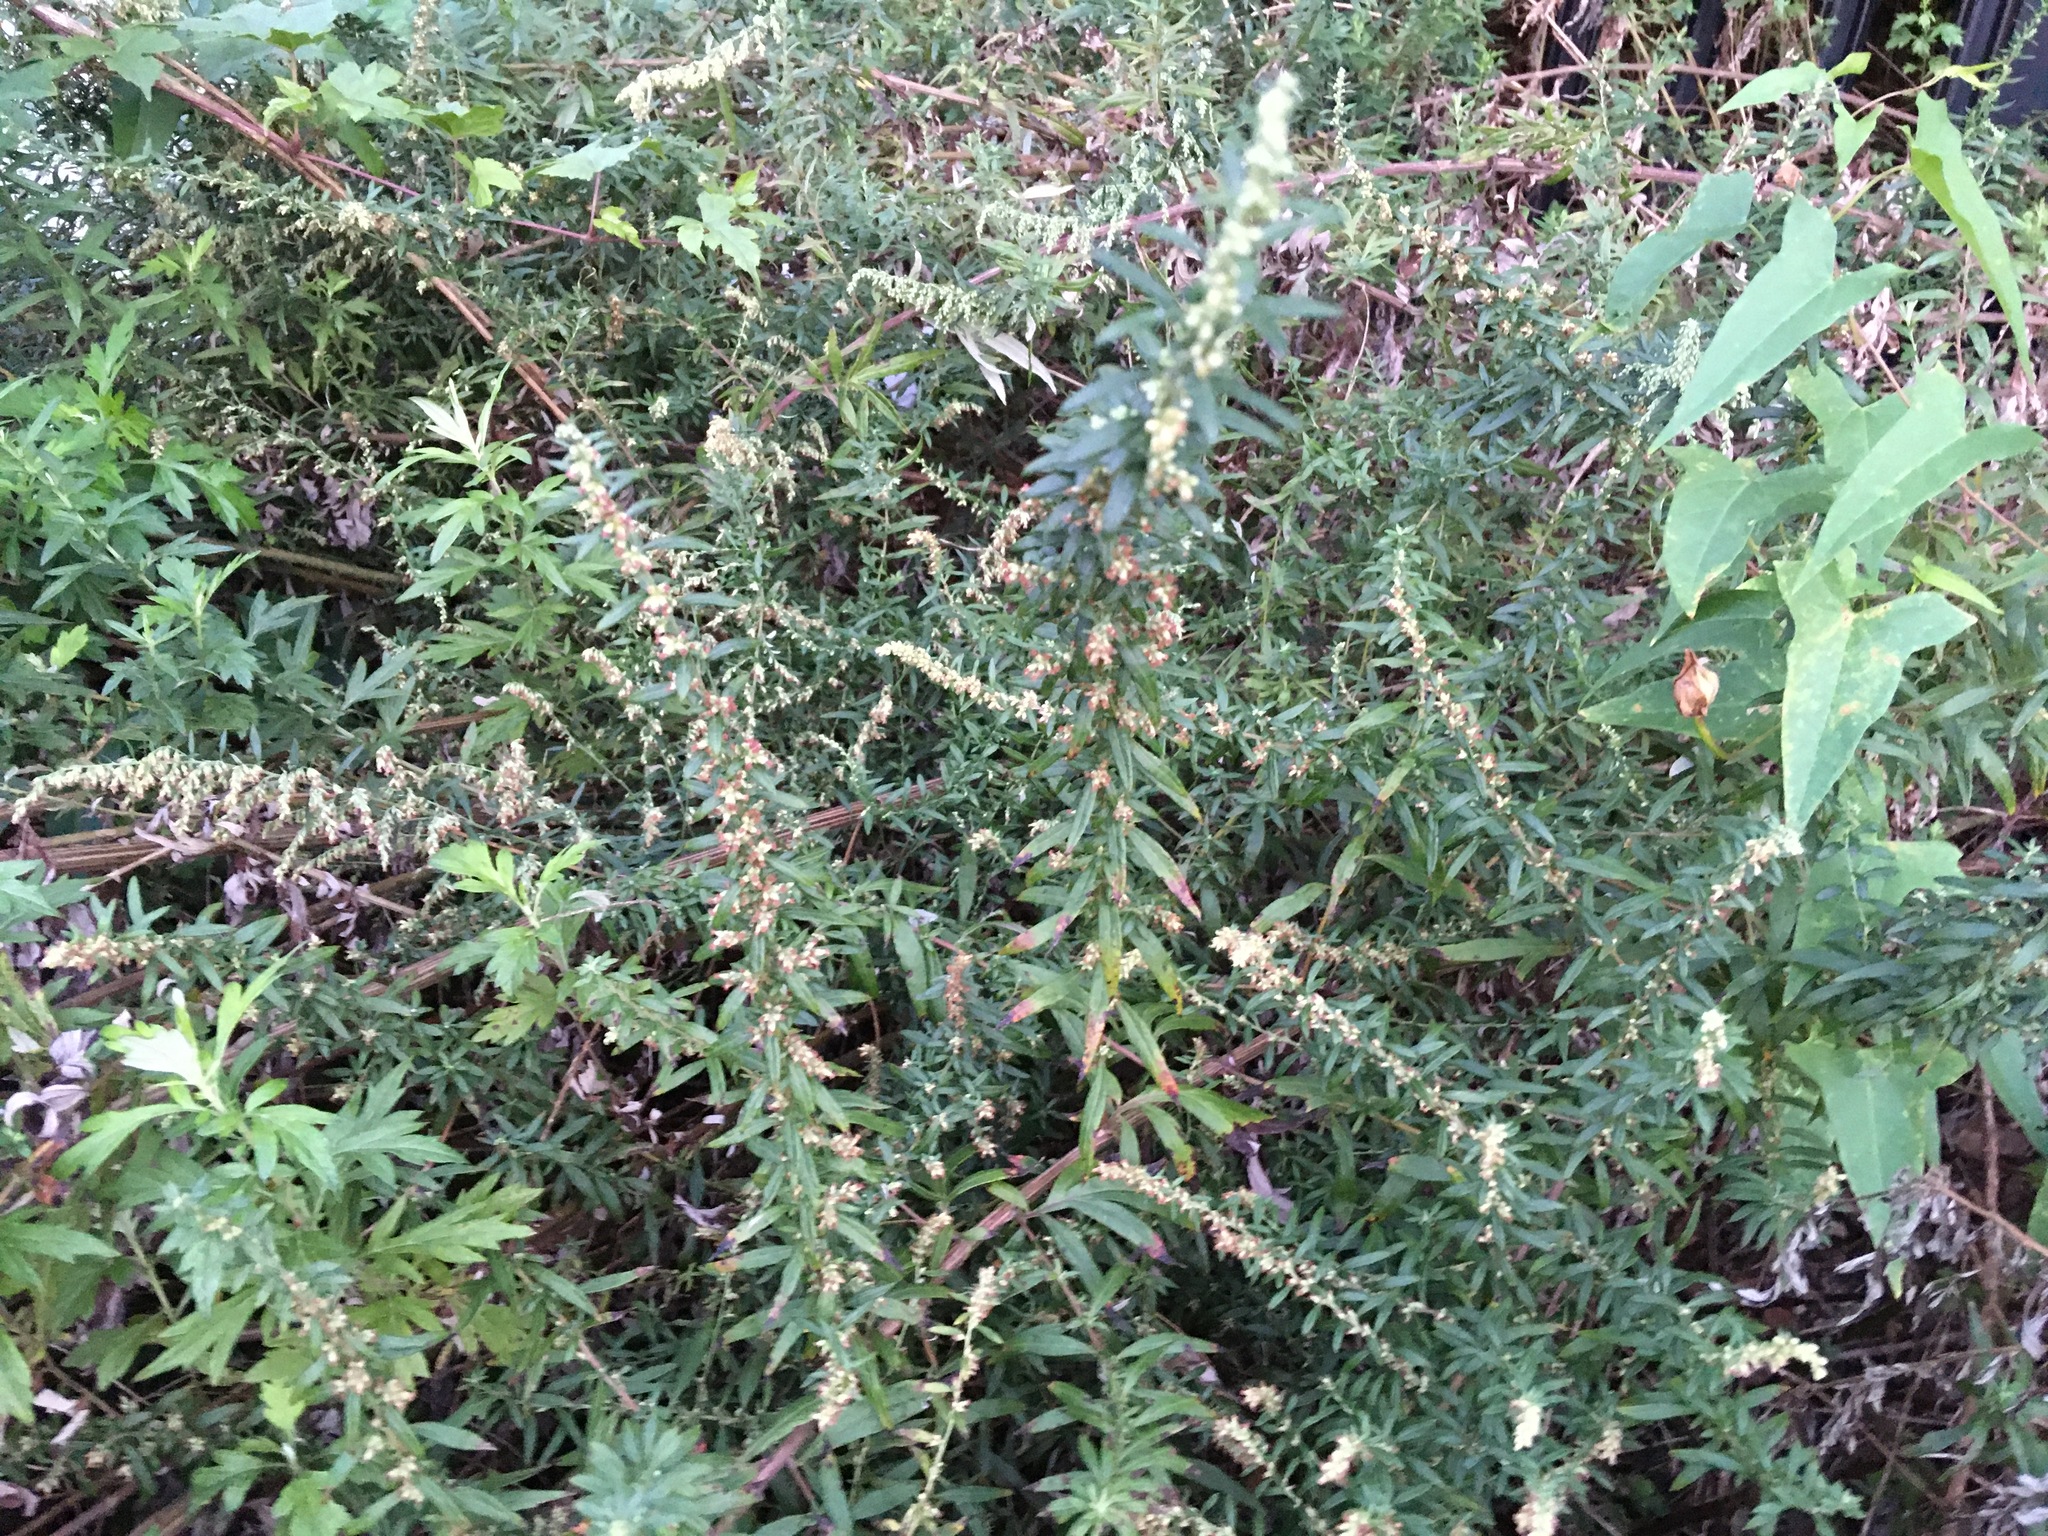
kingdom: Plantae
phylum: Tracheophyta
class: Magnoliopsida
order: Asterales
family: Asteraceae
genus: Artemisia
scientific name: Artemisia vulgaris
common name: Mugwort
